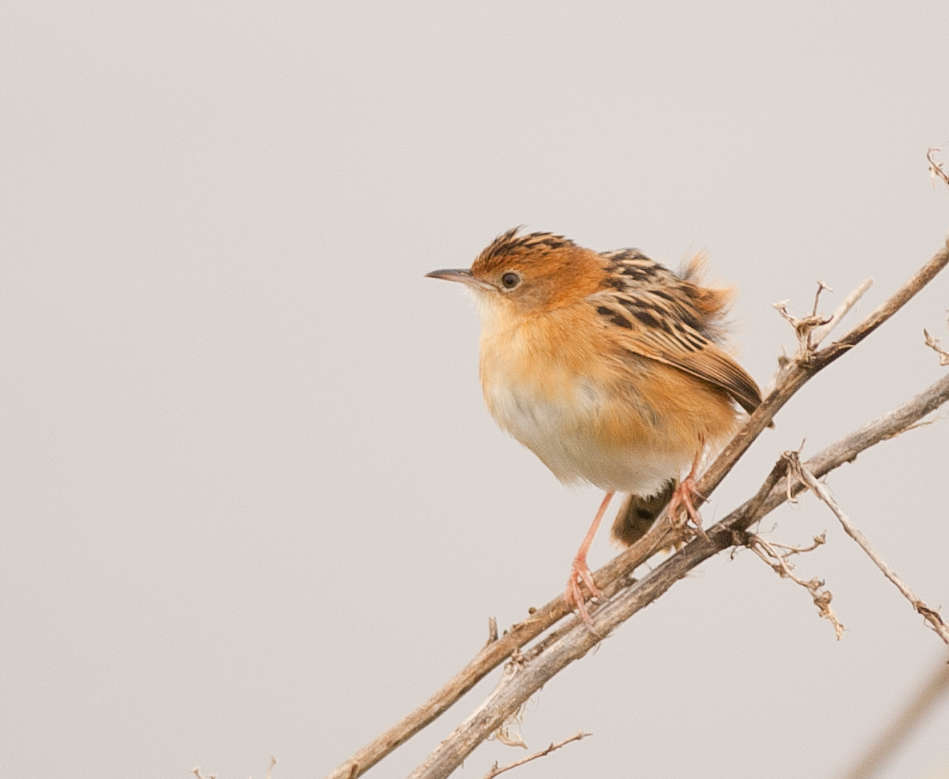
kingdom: Animalia
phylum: Chordata
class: Aves
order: Passeriformes
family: Cisticolidae
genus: Cisticola
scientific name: Cisticola exilis
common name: Golden-headed cisticola
